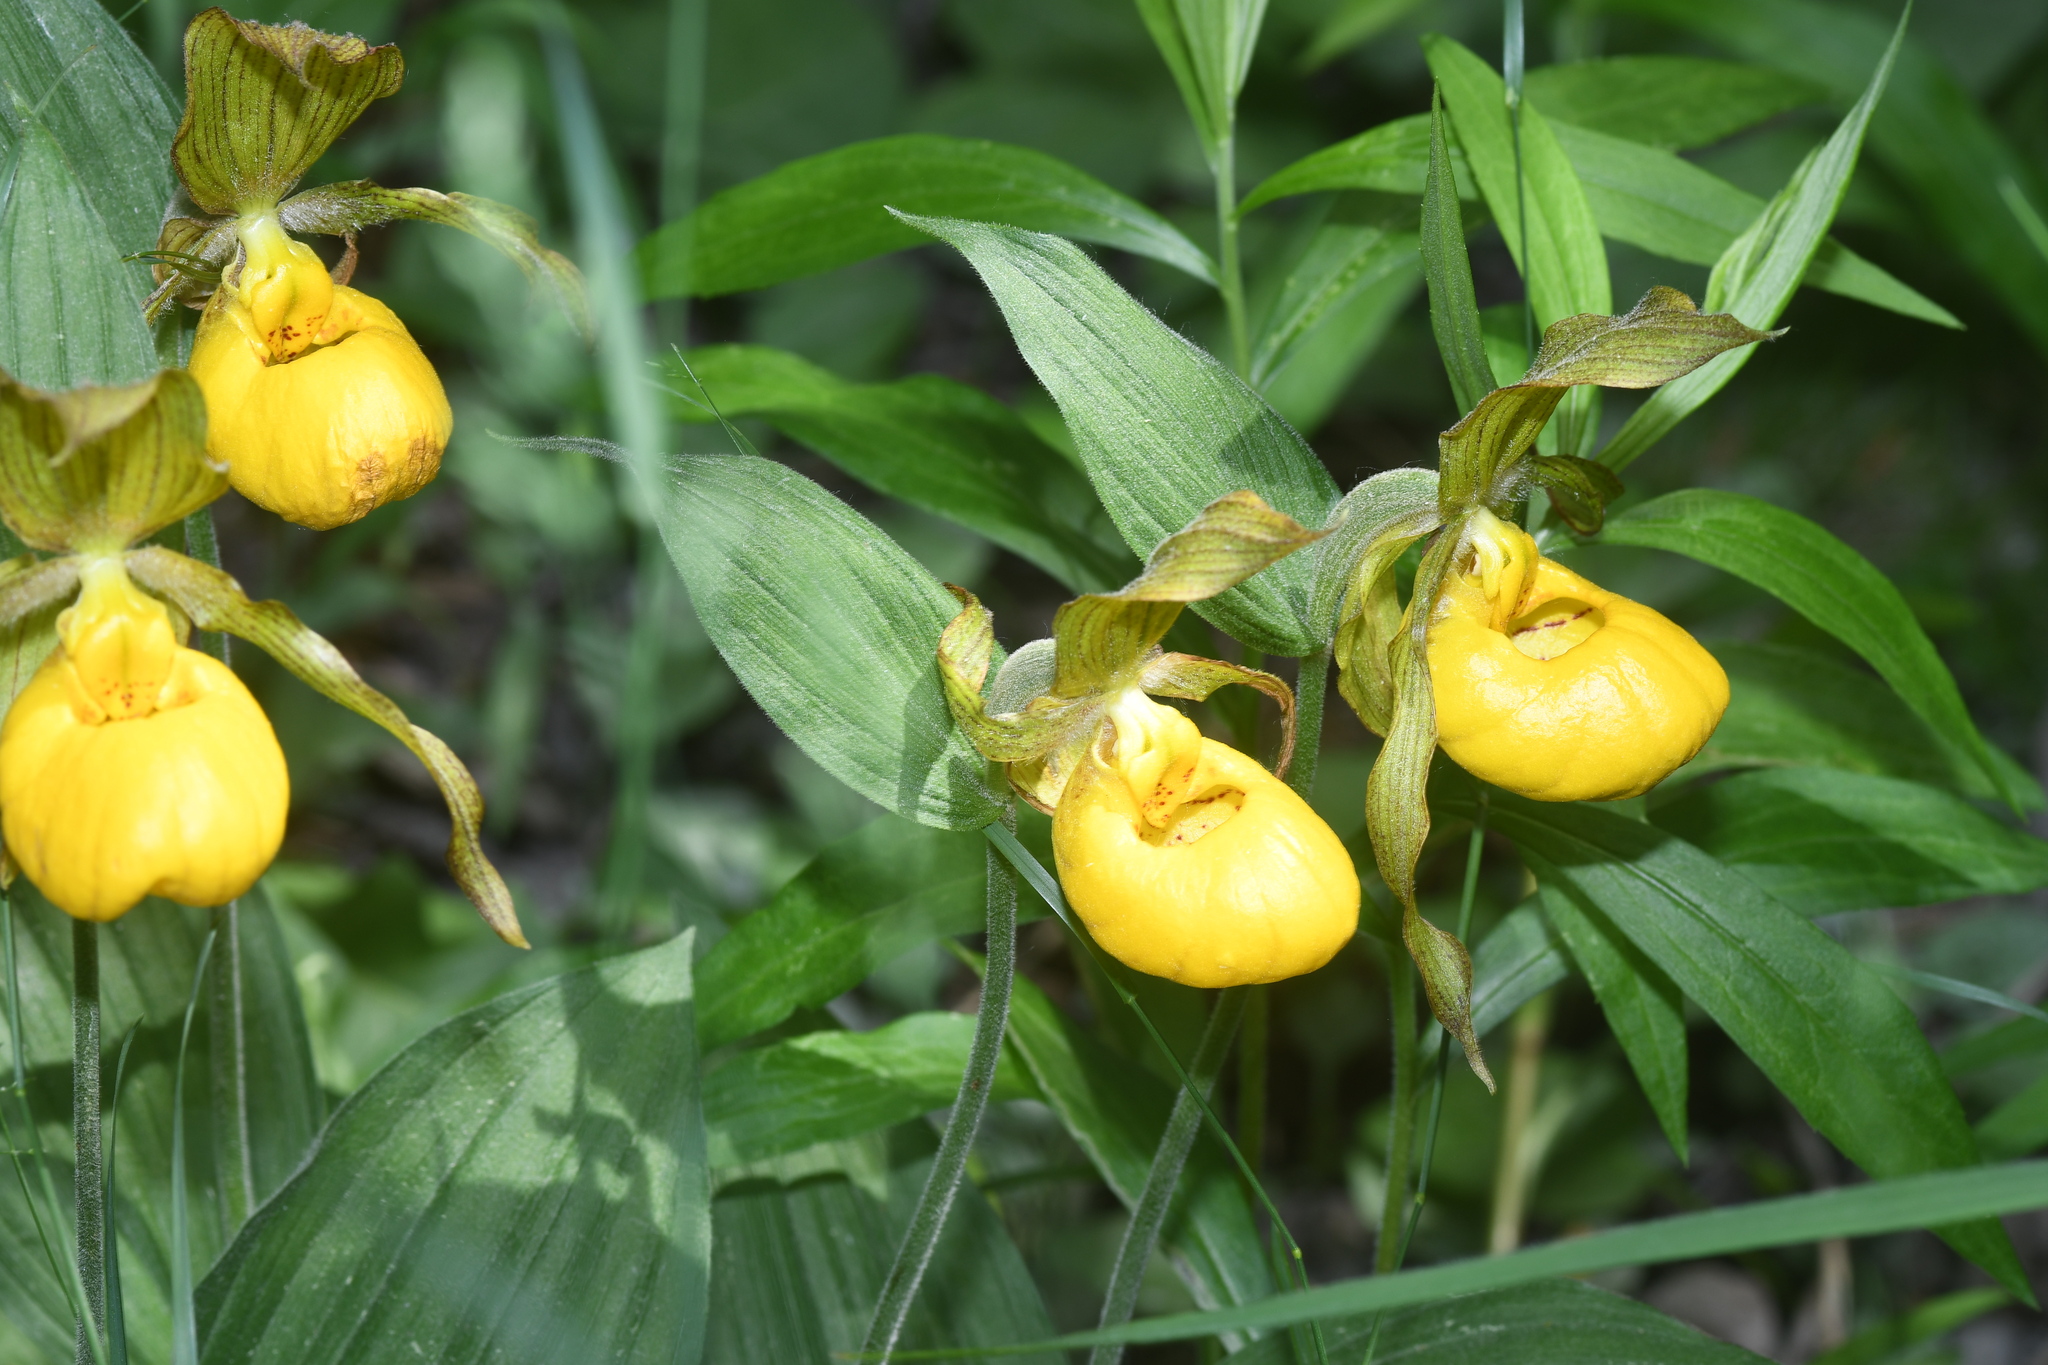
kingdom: Plantae
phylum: Tracheophyta
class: Liliopsida
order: Asparagales
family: Orchidaceae
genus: Cypripedium
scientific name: Cypripedium parviflorum
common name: American yellow lady's-slipper
